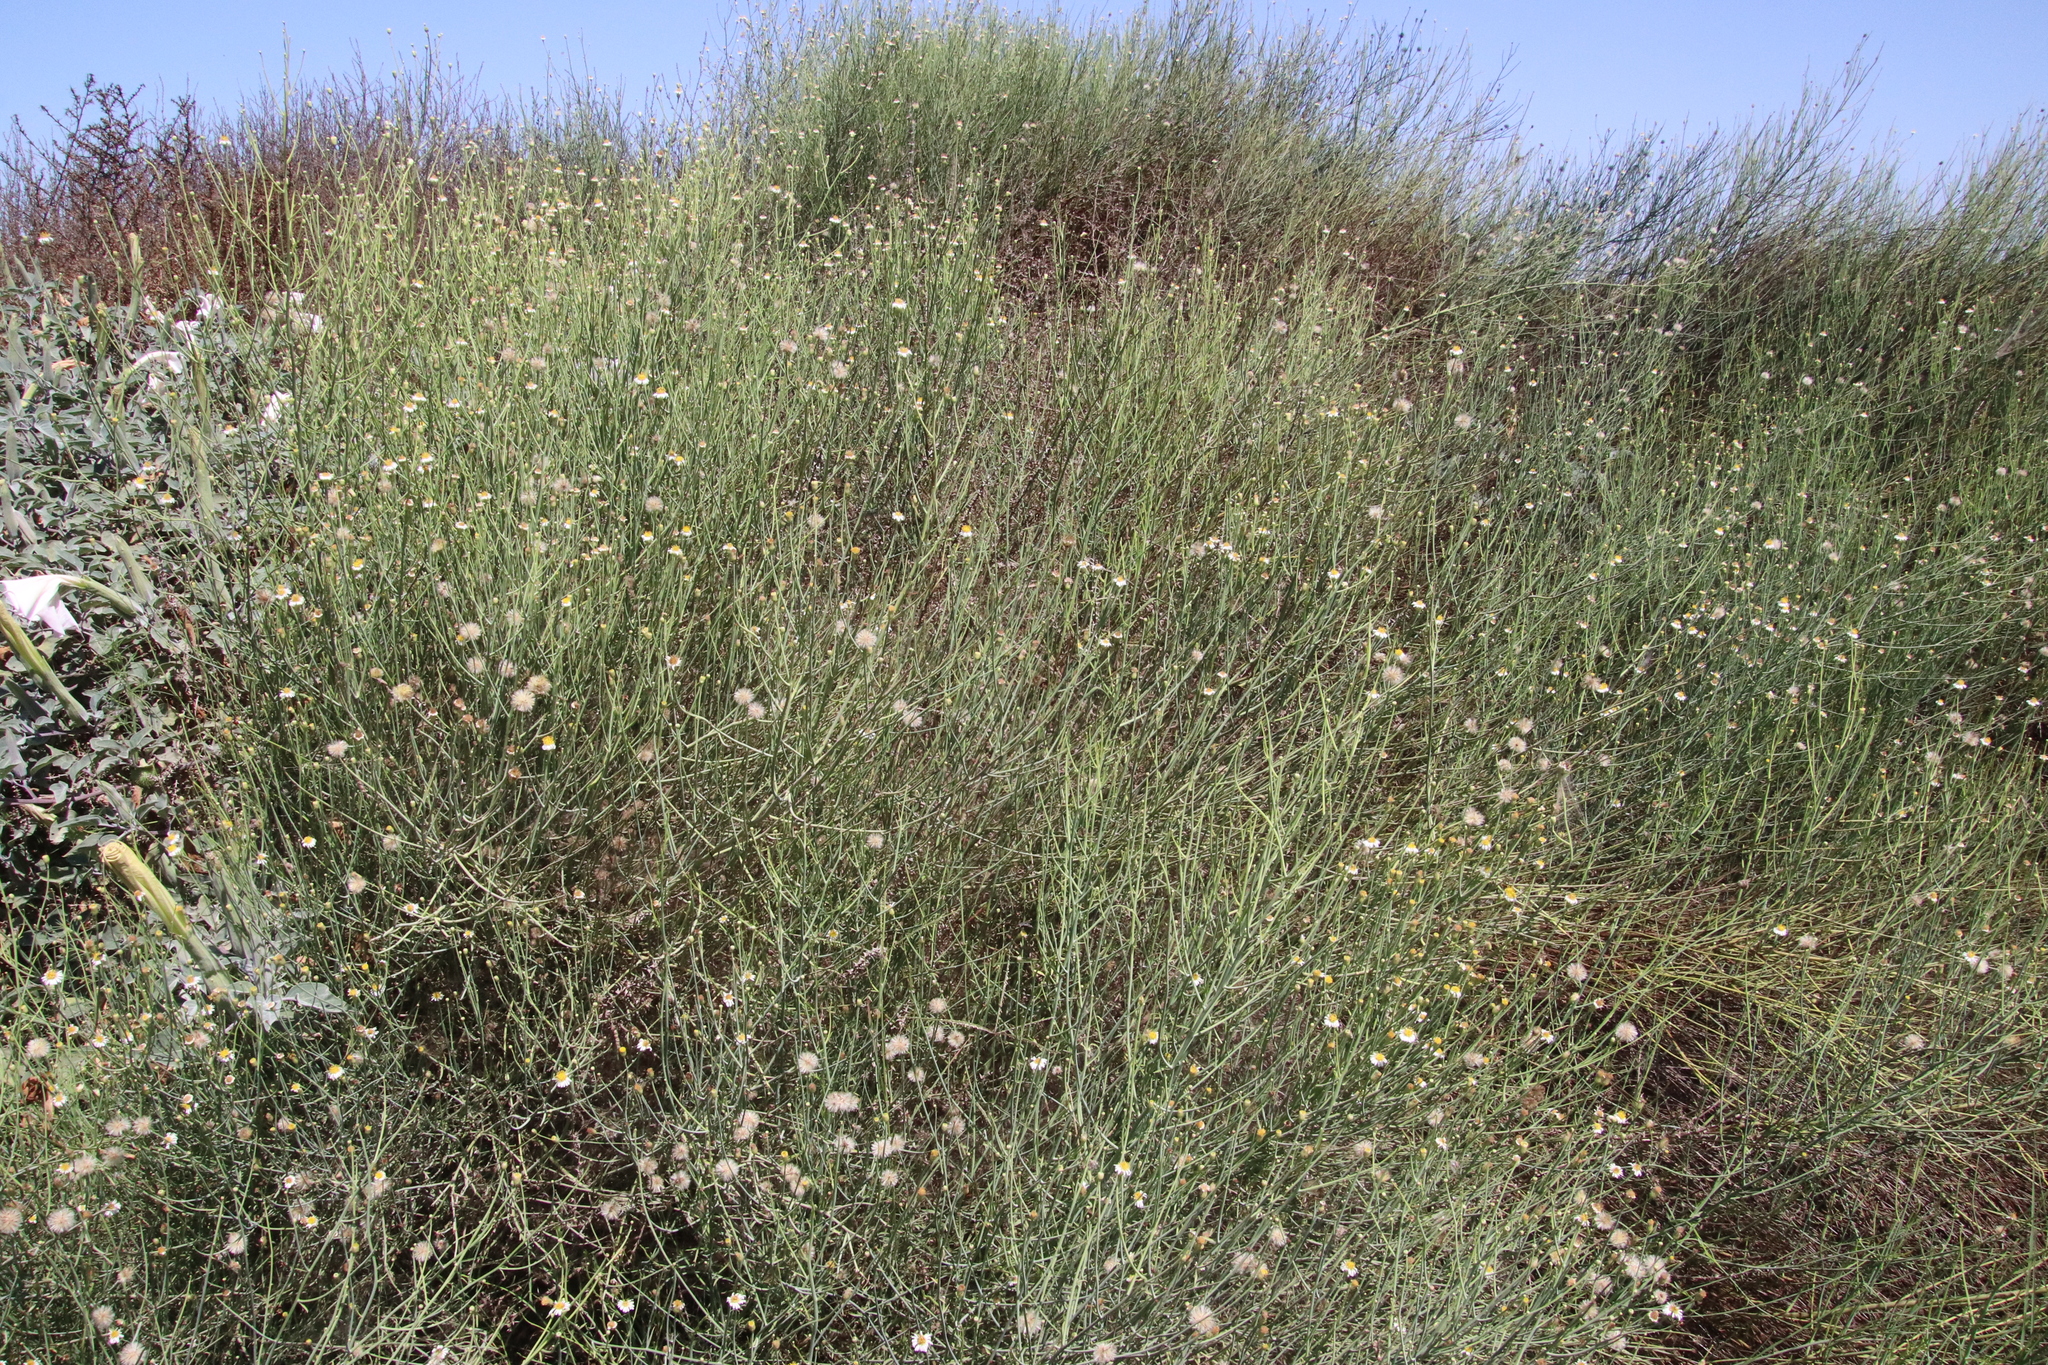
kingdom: Plantae
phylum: Tracheophyta
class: Magnoliopsida
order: Asterales
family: Asteraceae
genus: Chloracantha
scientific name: Chloracantha spinosa
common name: Mexican devilweed
